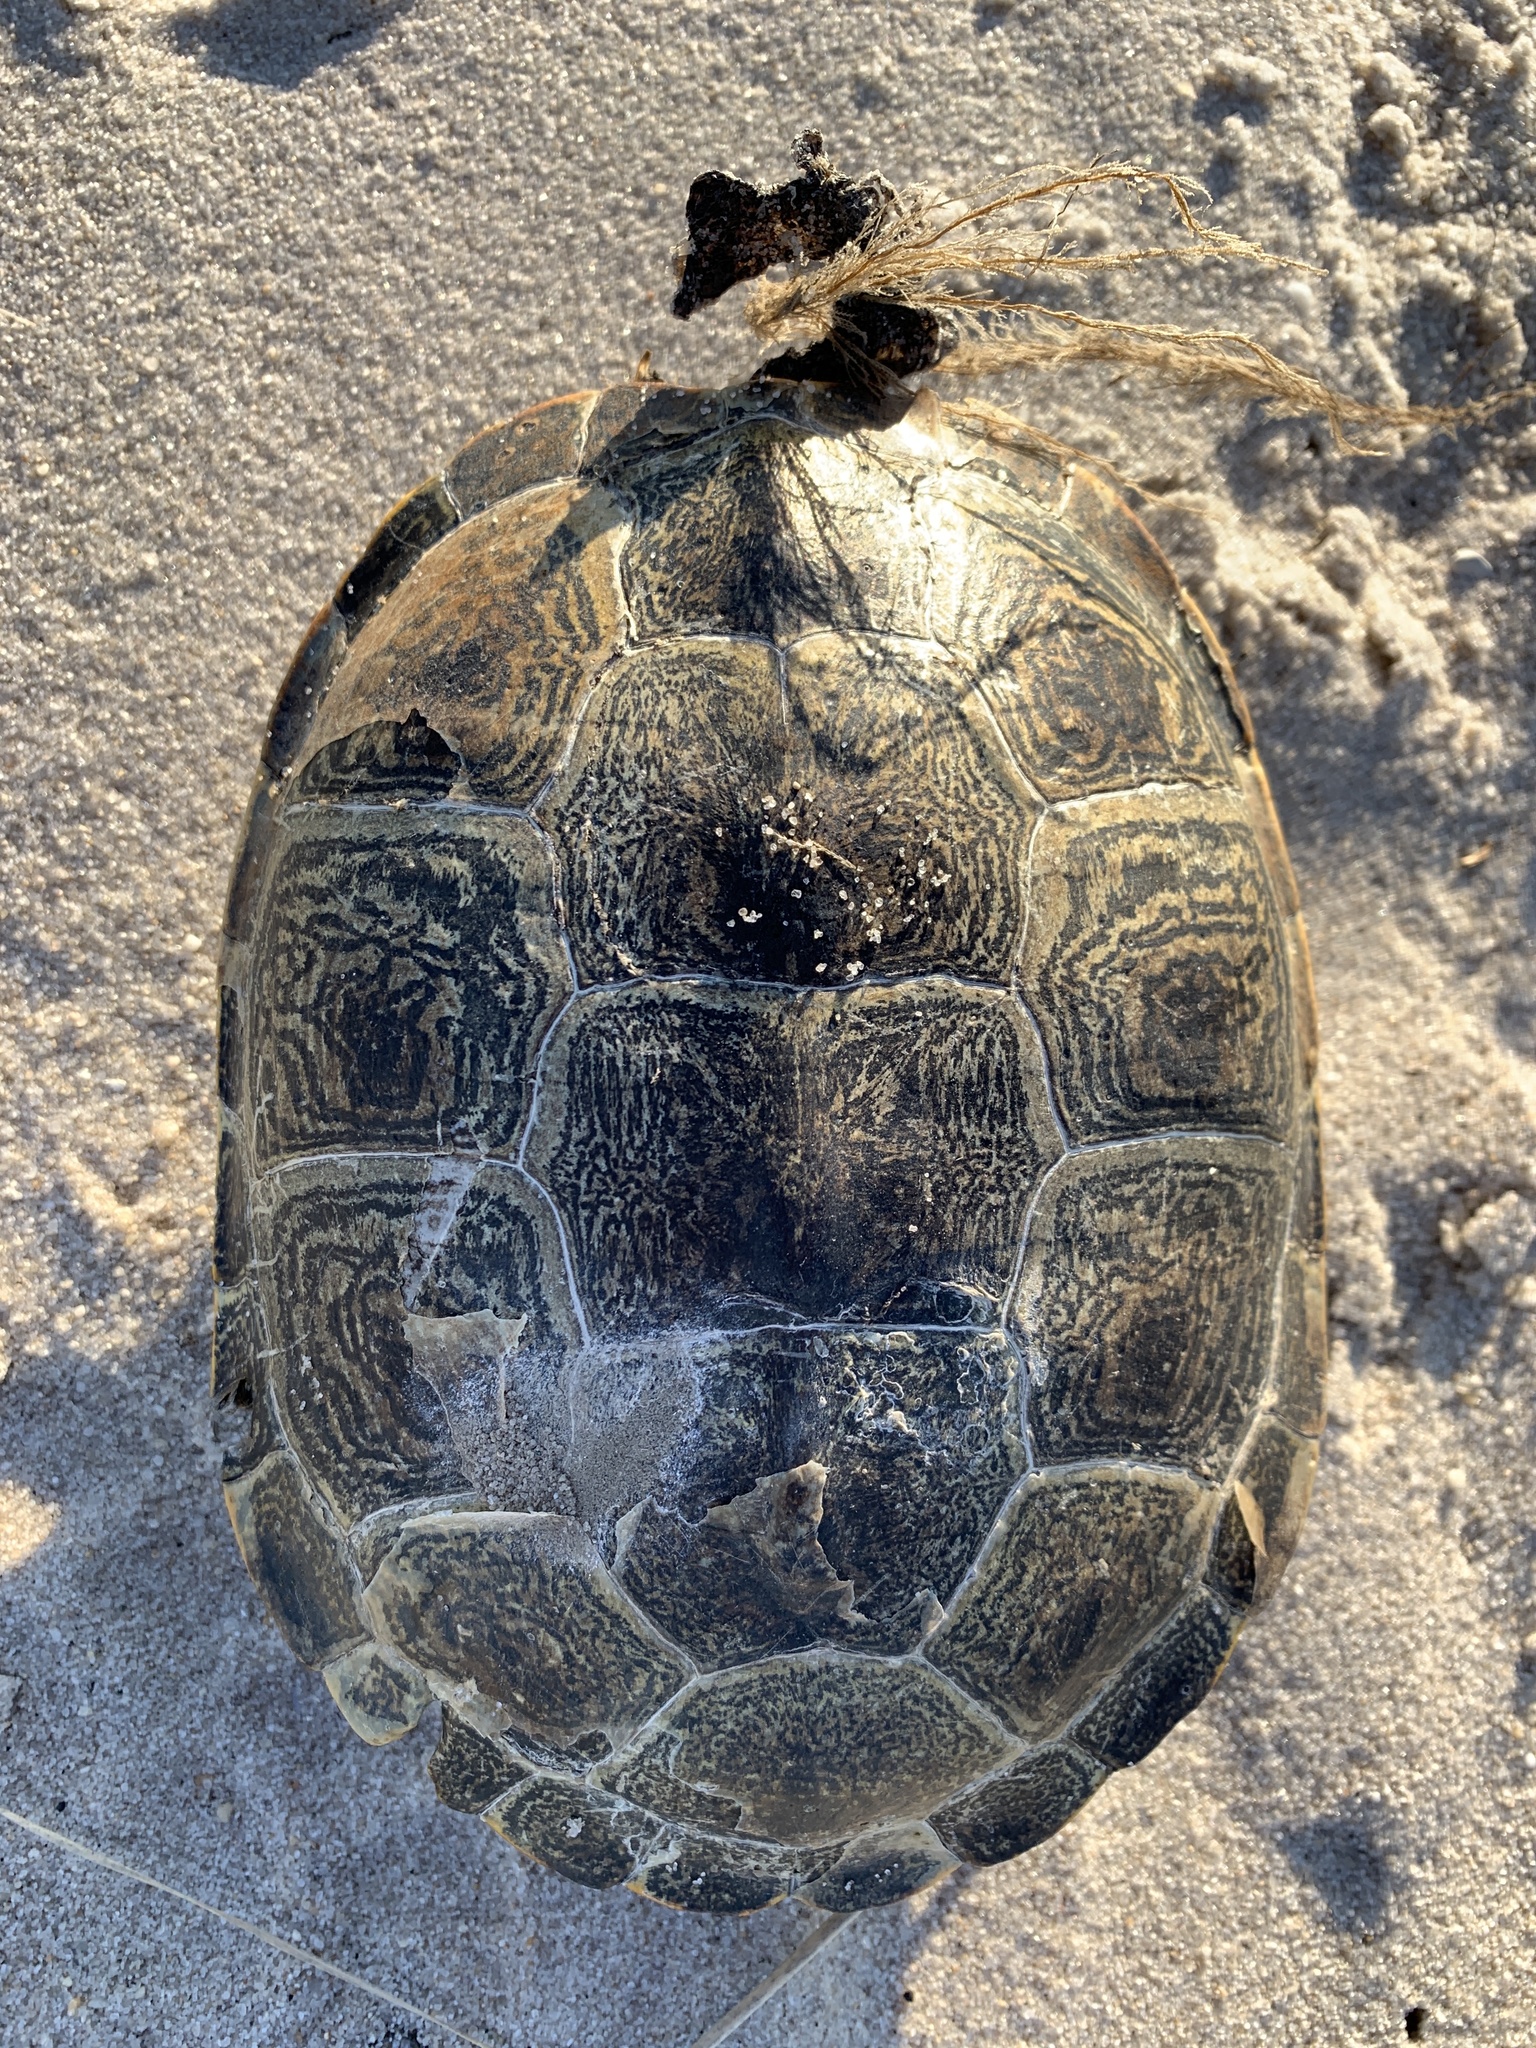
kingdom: Animalia
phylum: Chordata
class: Testudines
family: Emydidae
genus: Malaclemys
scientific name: Malaclemys terrapin
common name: Diamondback terrapin
